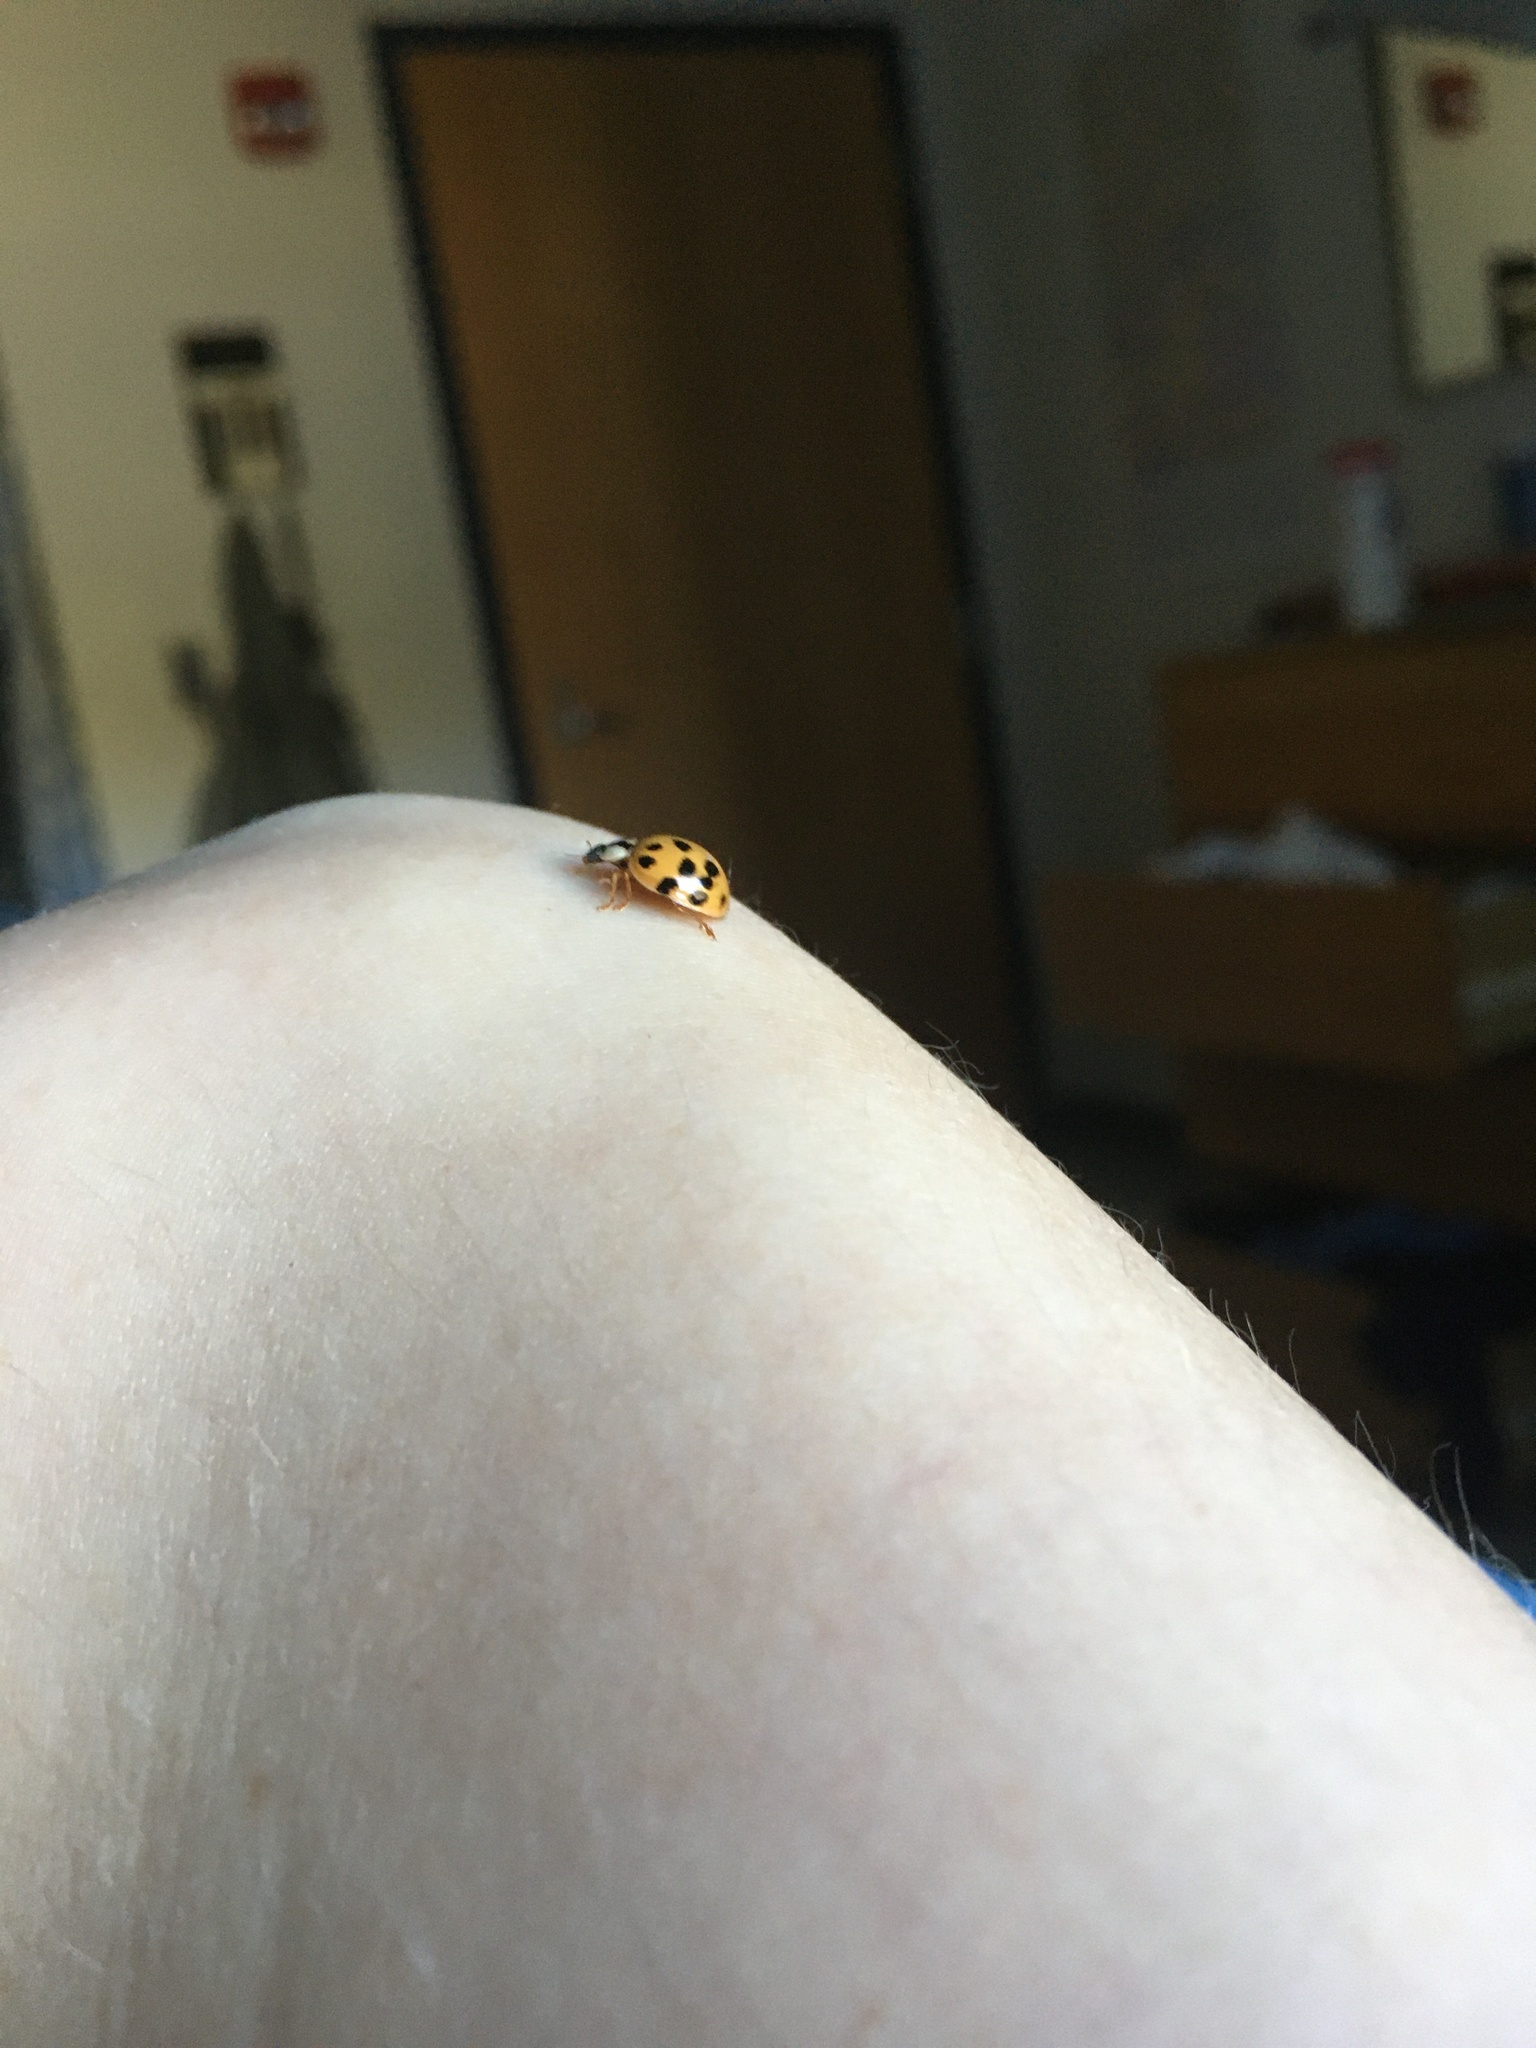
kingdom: Animalia
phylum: Arthropoda
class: Insecta
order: Coleoptera
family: Coccinellidae
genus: Harmonia
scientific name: Harmonia axyridis
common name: Harlequin ladybird
